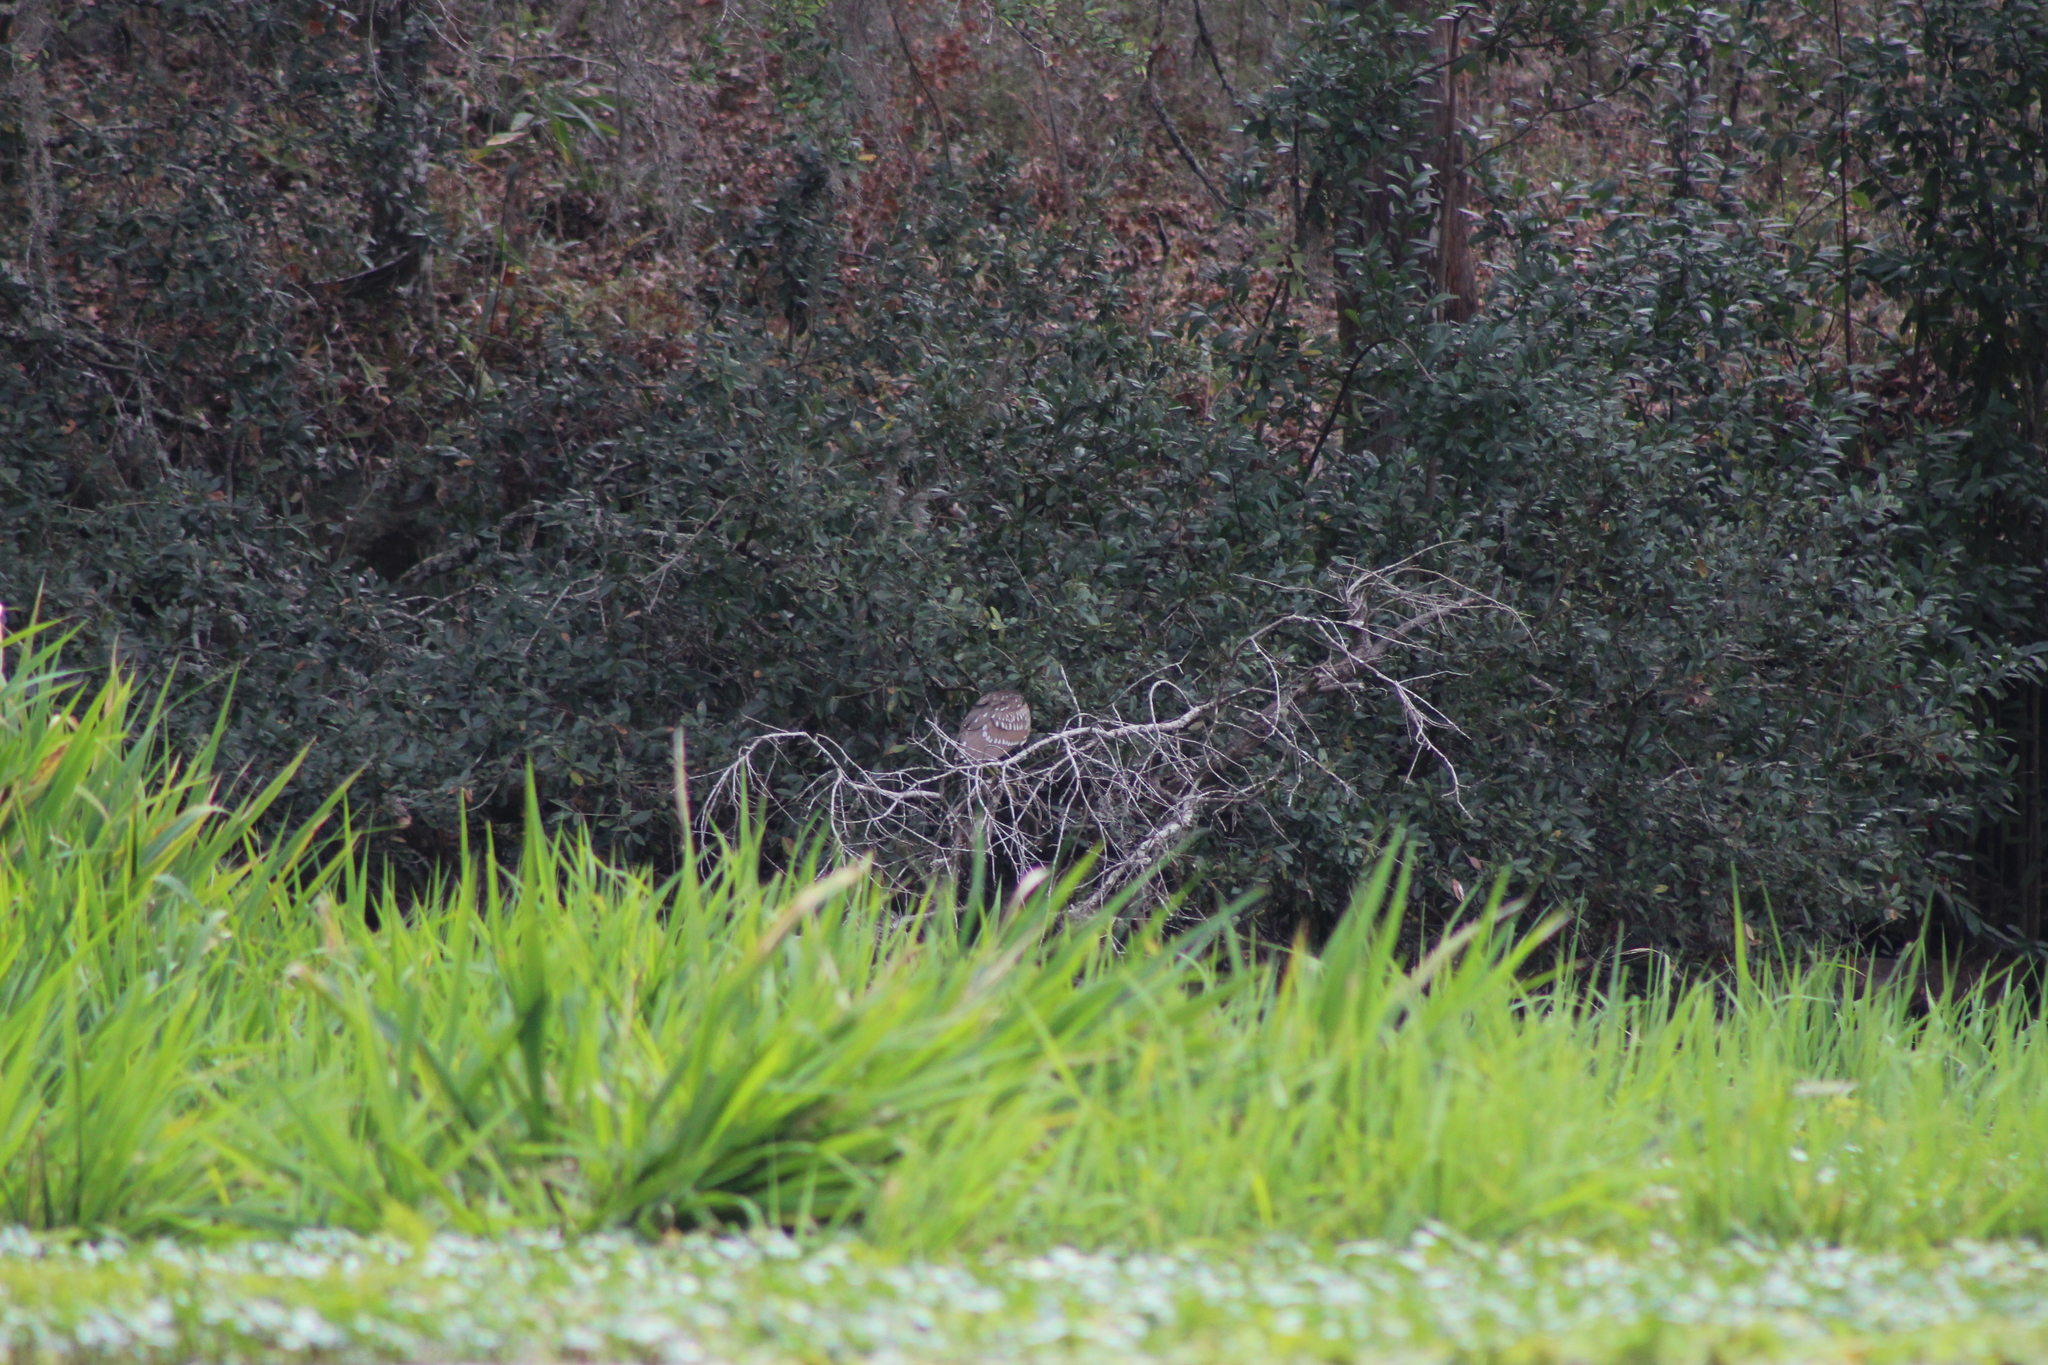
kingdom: Animalia
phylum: Chordata
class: Aves
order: Pelecaniformes
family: Ardeidae
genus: Nycticorax
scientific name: Nycticorax nycticorax
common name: Black-crowned night heron
